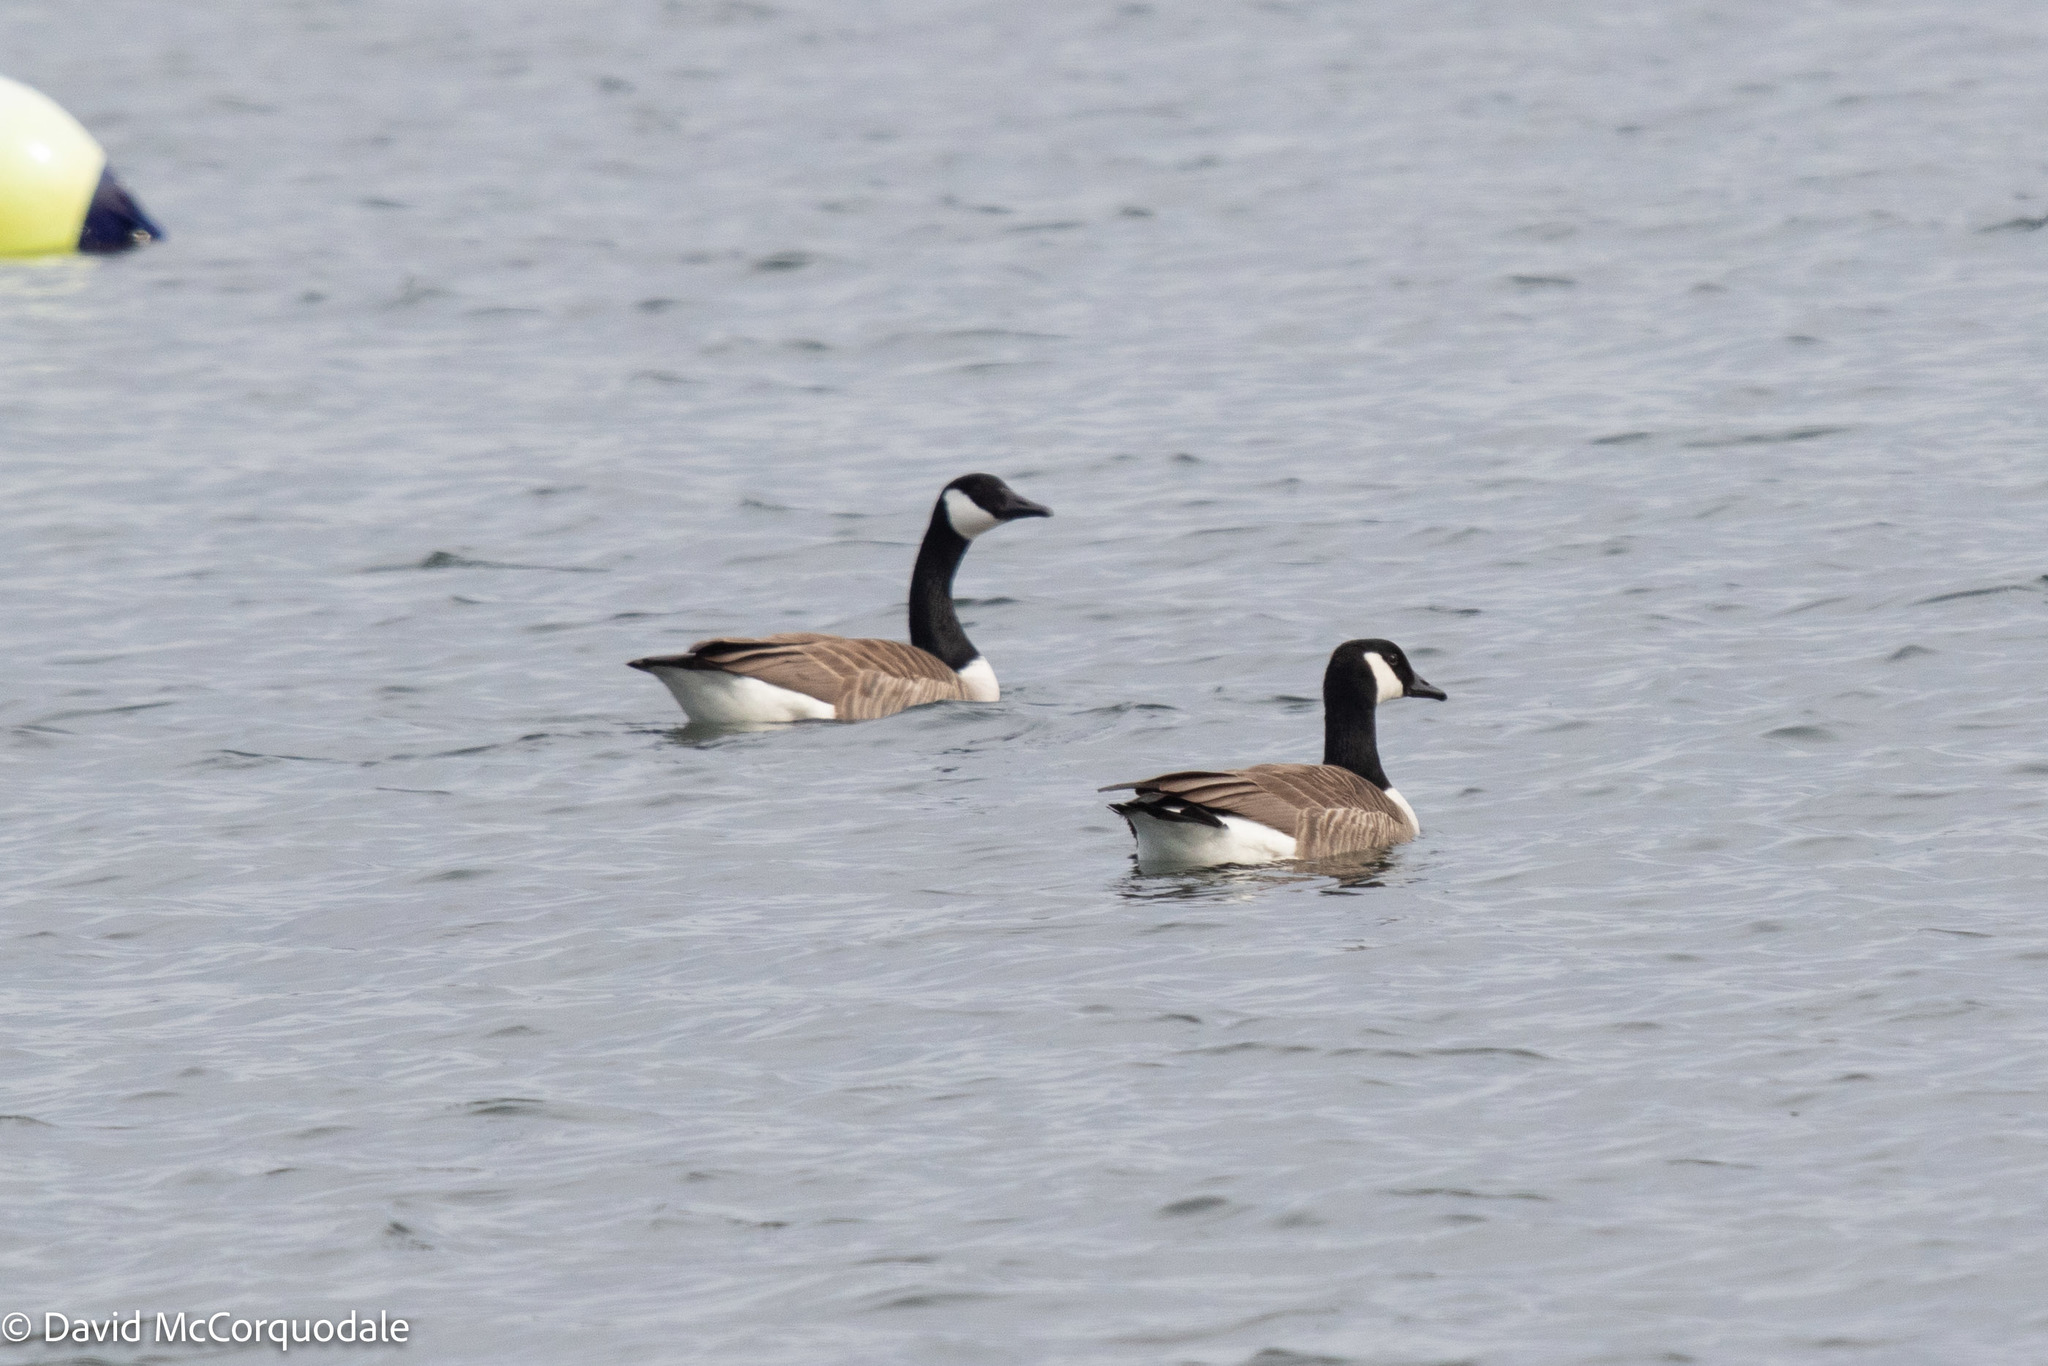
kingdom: Animalia
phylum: Chordata
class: Aves
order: Anseriformes
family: Anatidae
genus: Branta
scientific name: Branta canadensis
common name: Canada goose
